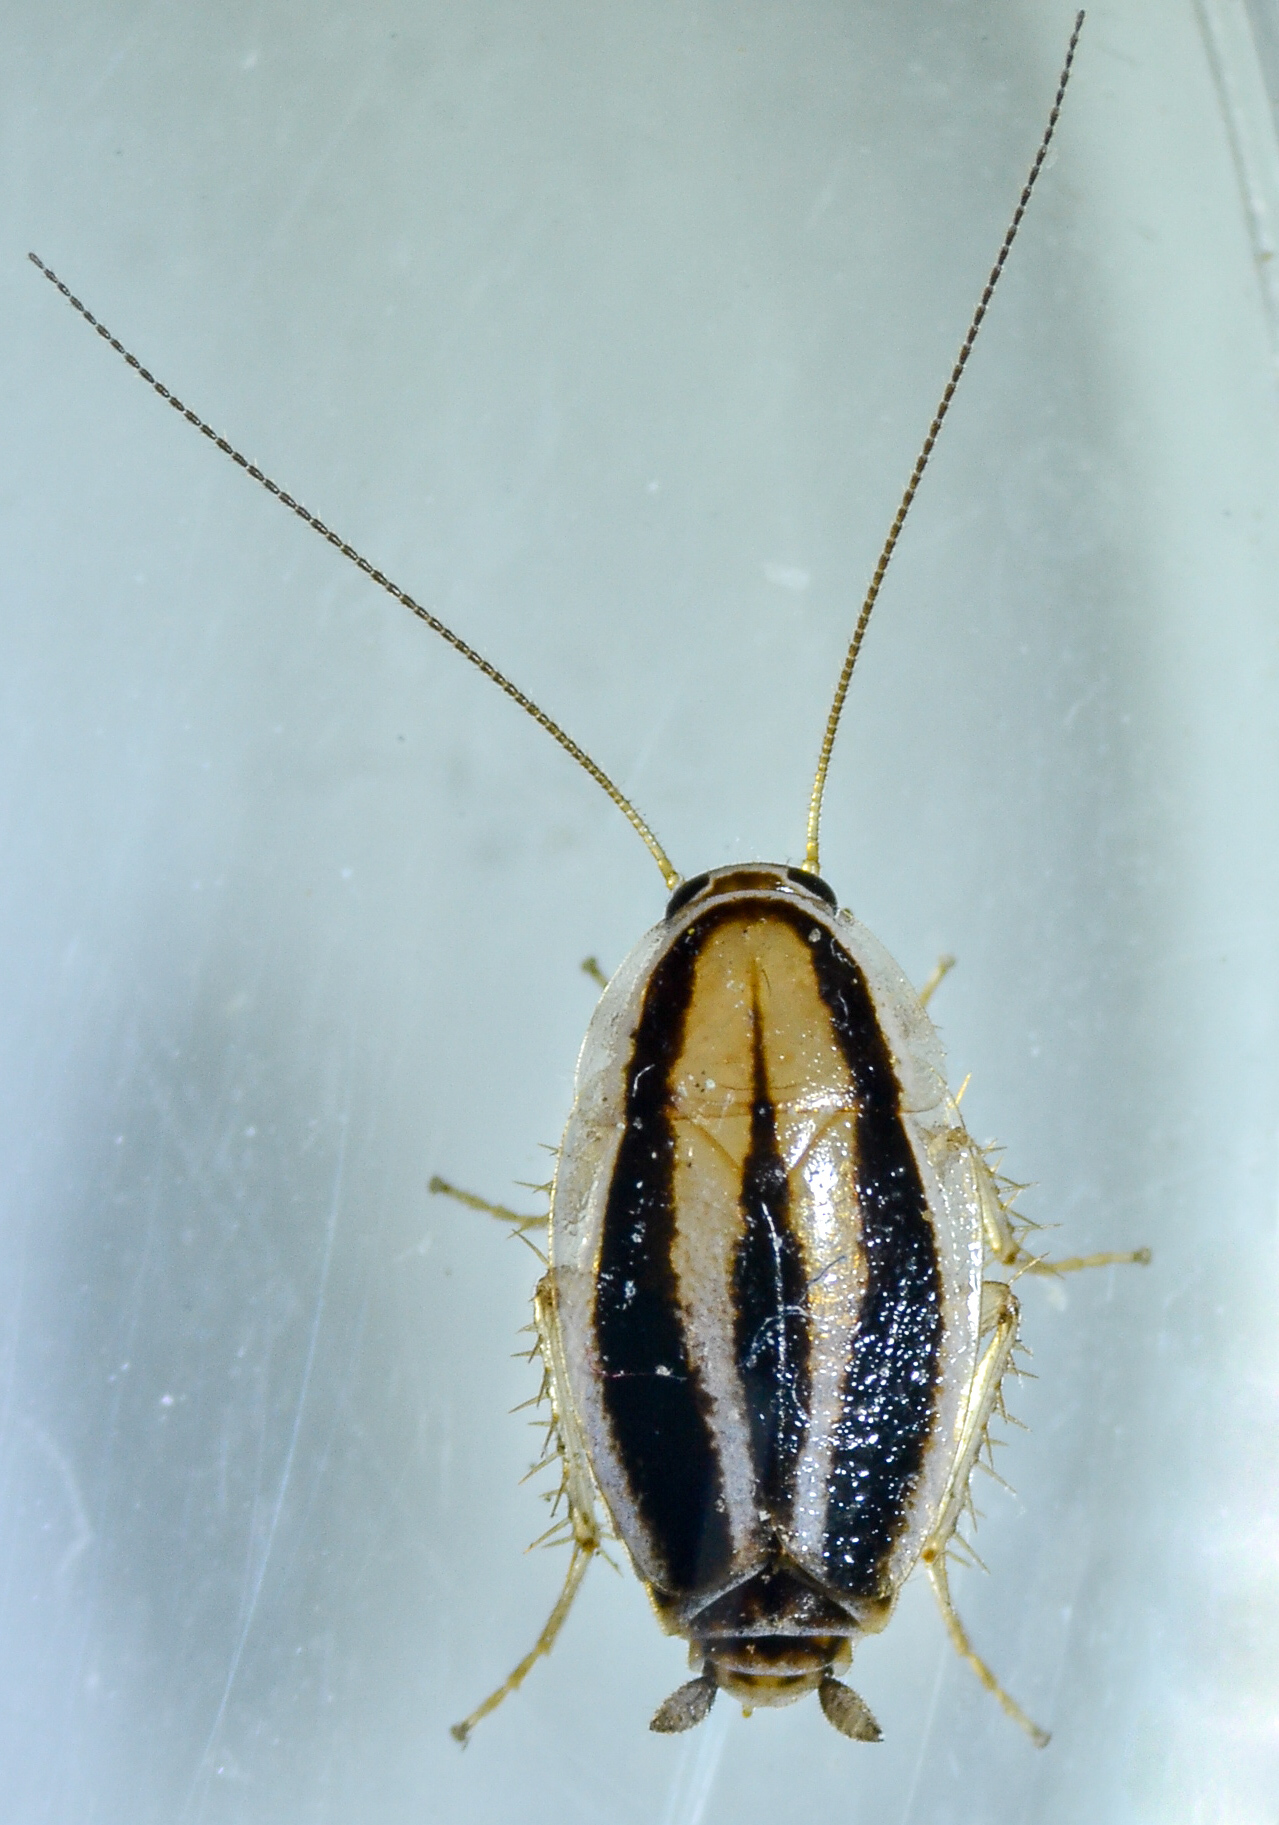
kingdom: Animalia
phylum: Arthropoda
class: Insecta
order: Blattodea
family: Ectobiidae
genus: Luridiblatta
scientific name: Luridiblatta trivittata
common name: Three-lined cockroach
